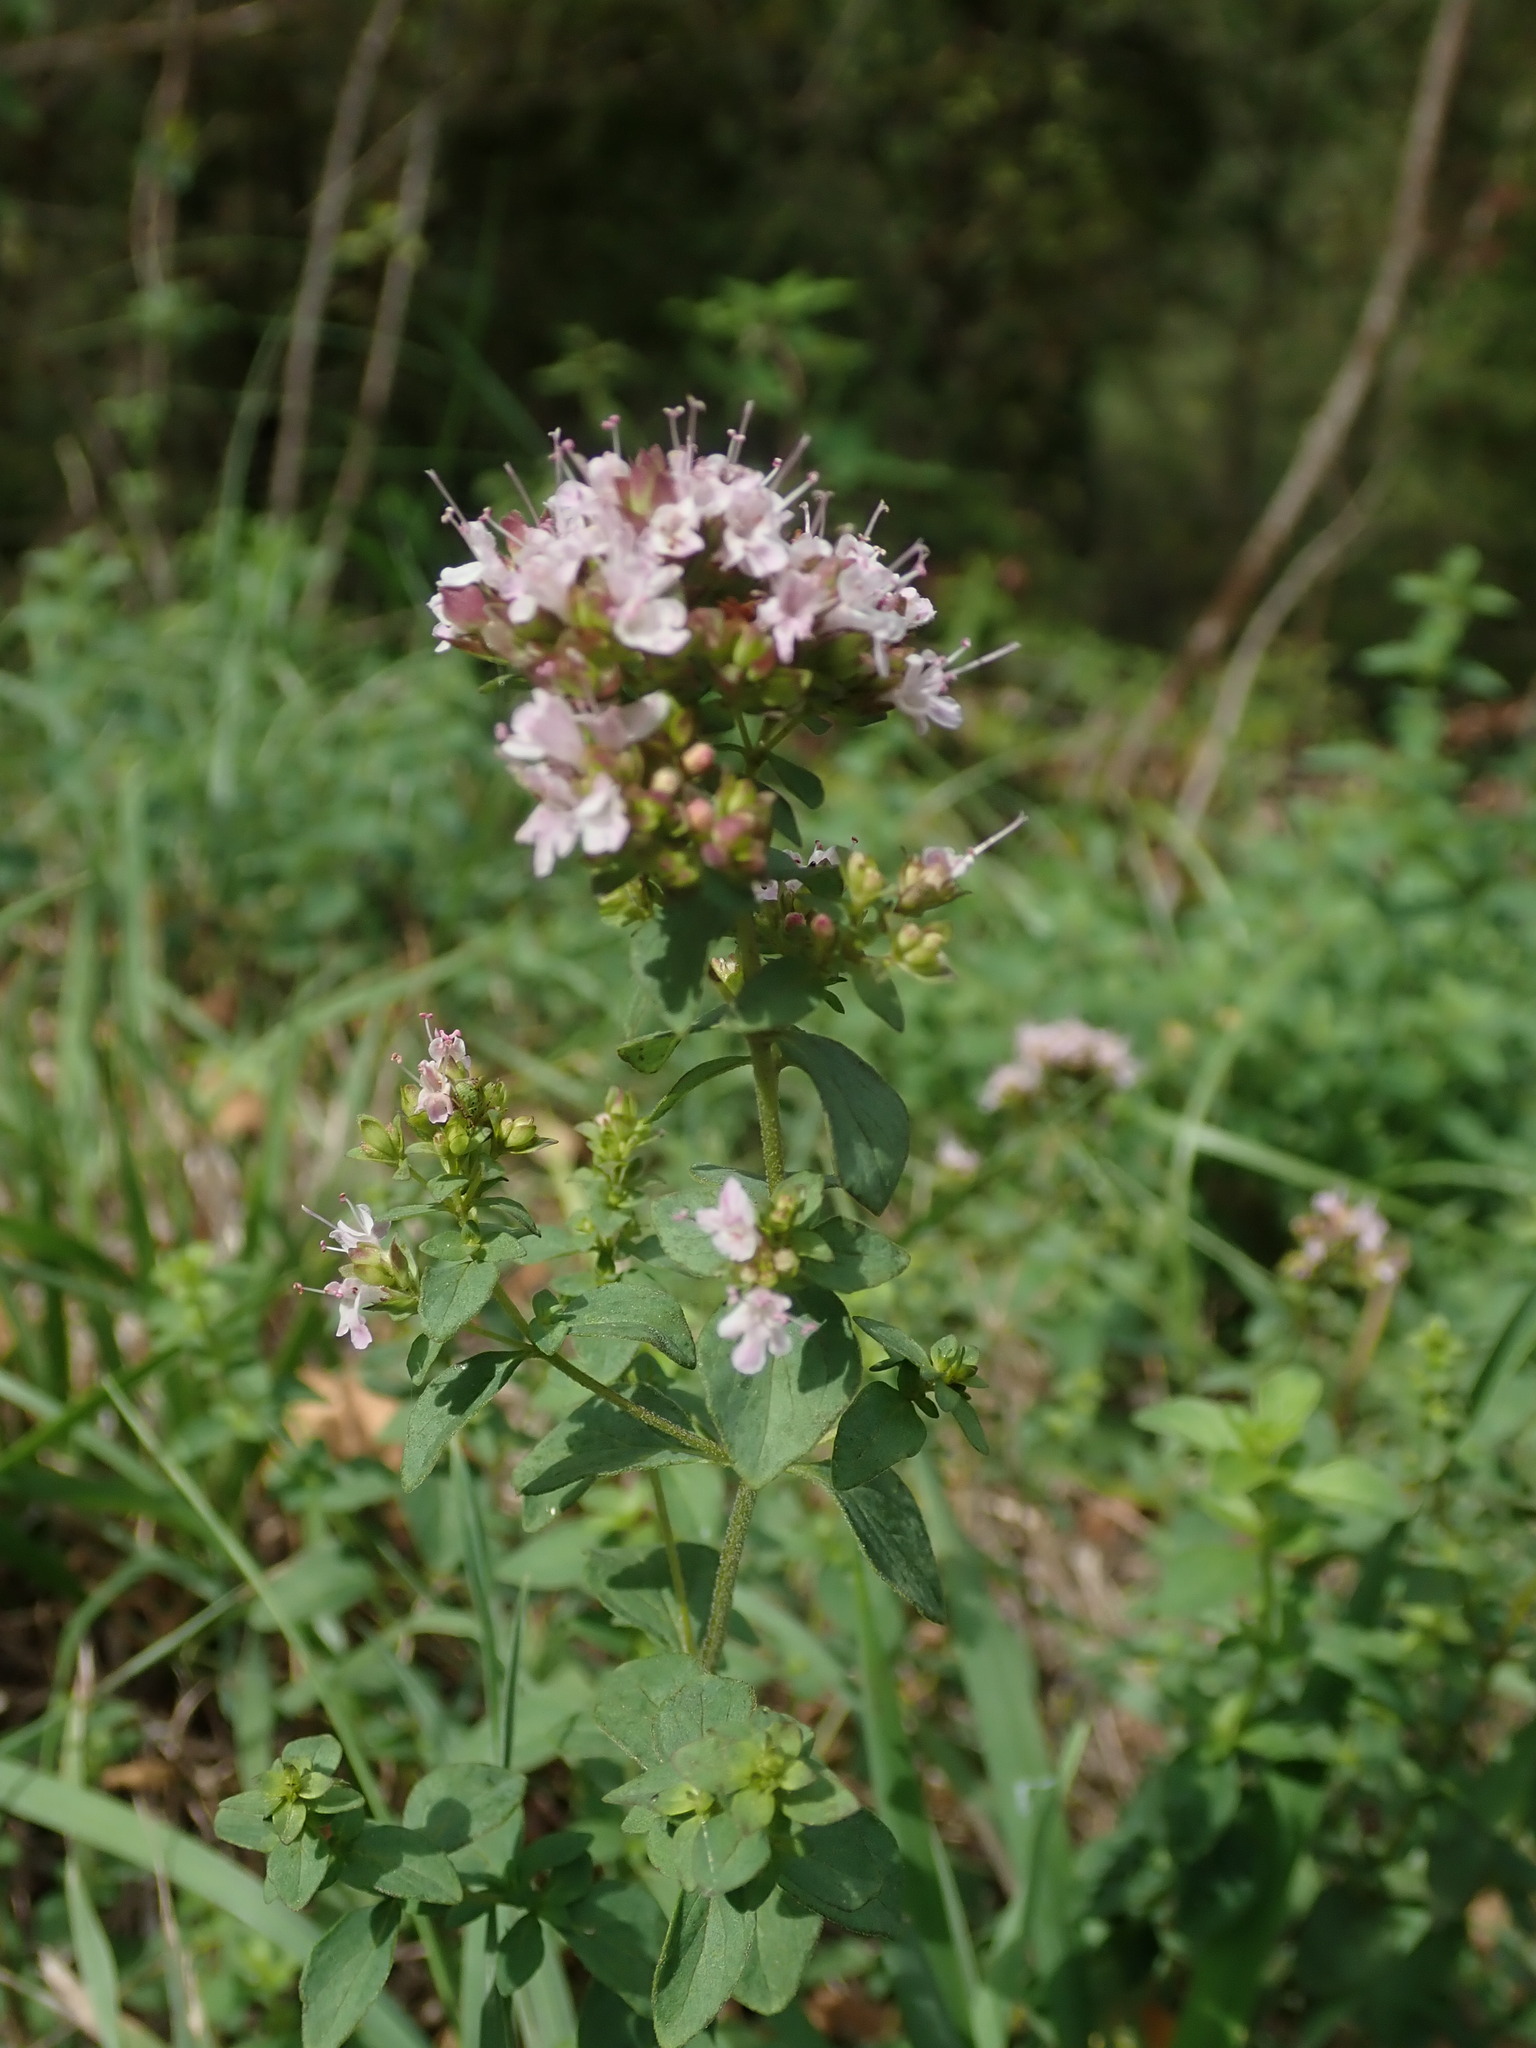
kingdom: Plantae
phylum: Tracheophyta
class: Magnoliopsida
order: Lamiales
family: Lamiaceae
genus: Origanum
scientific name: Origanum vulgare
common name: Wild marjoram
